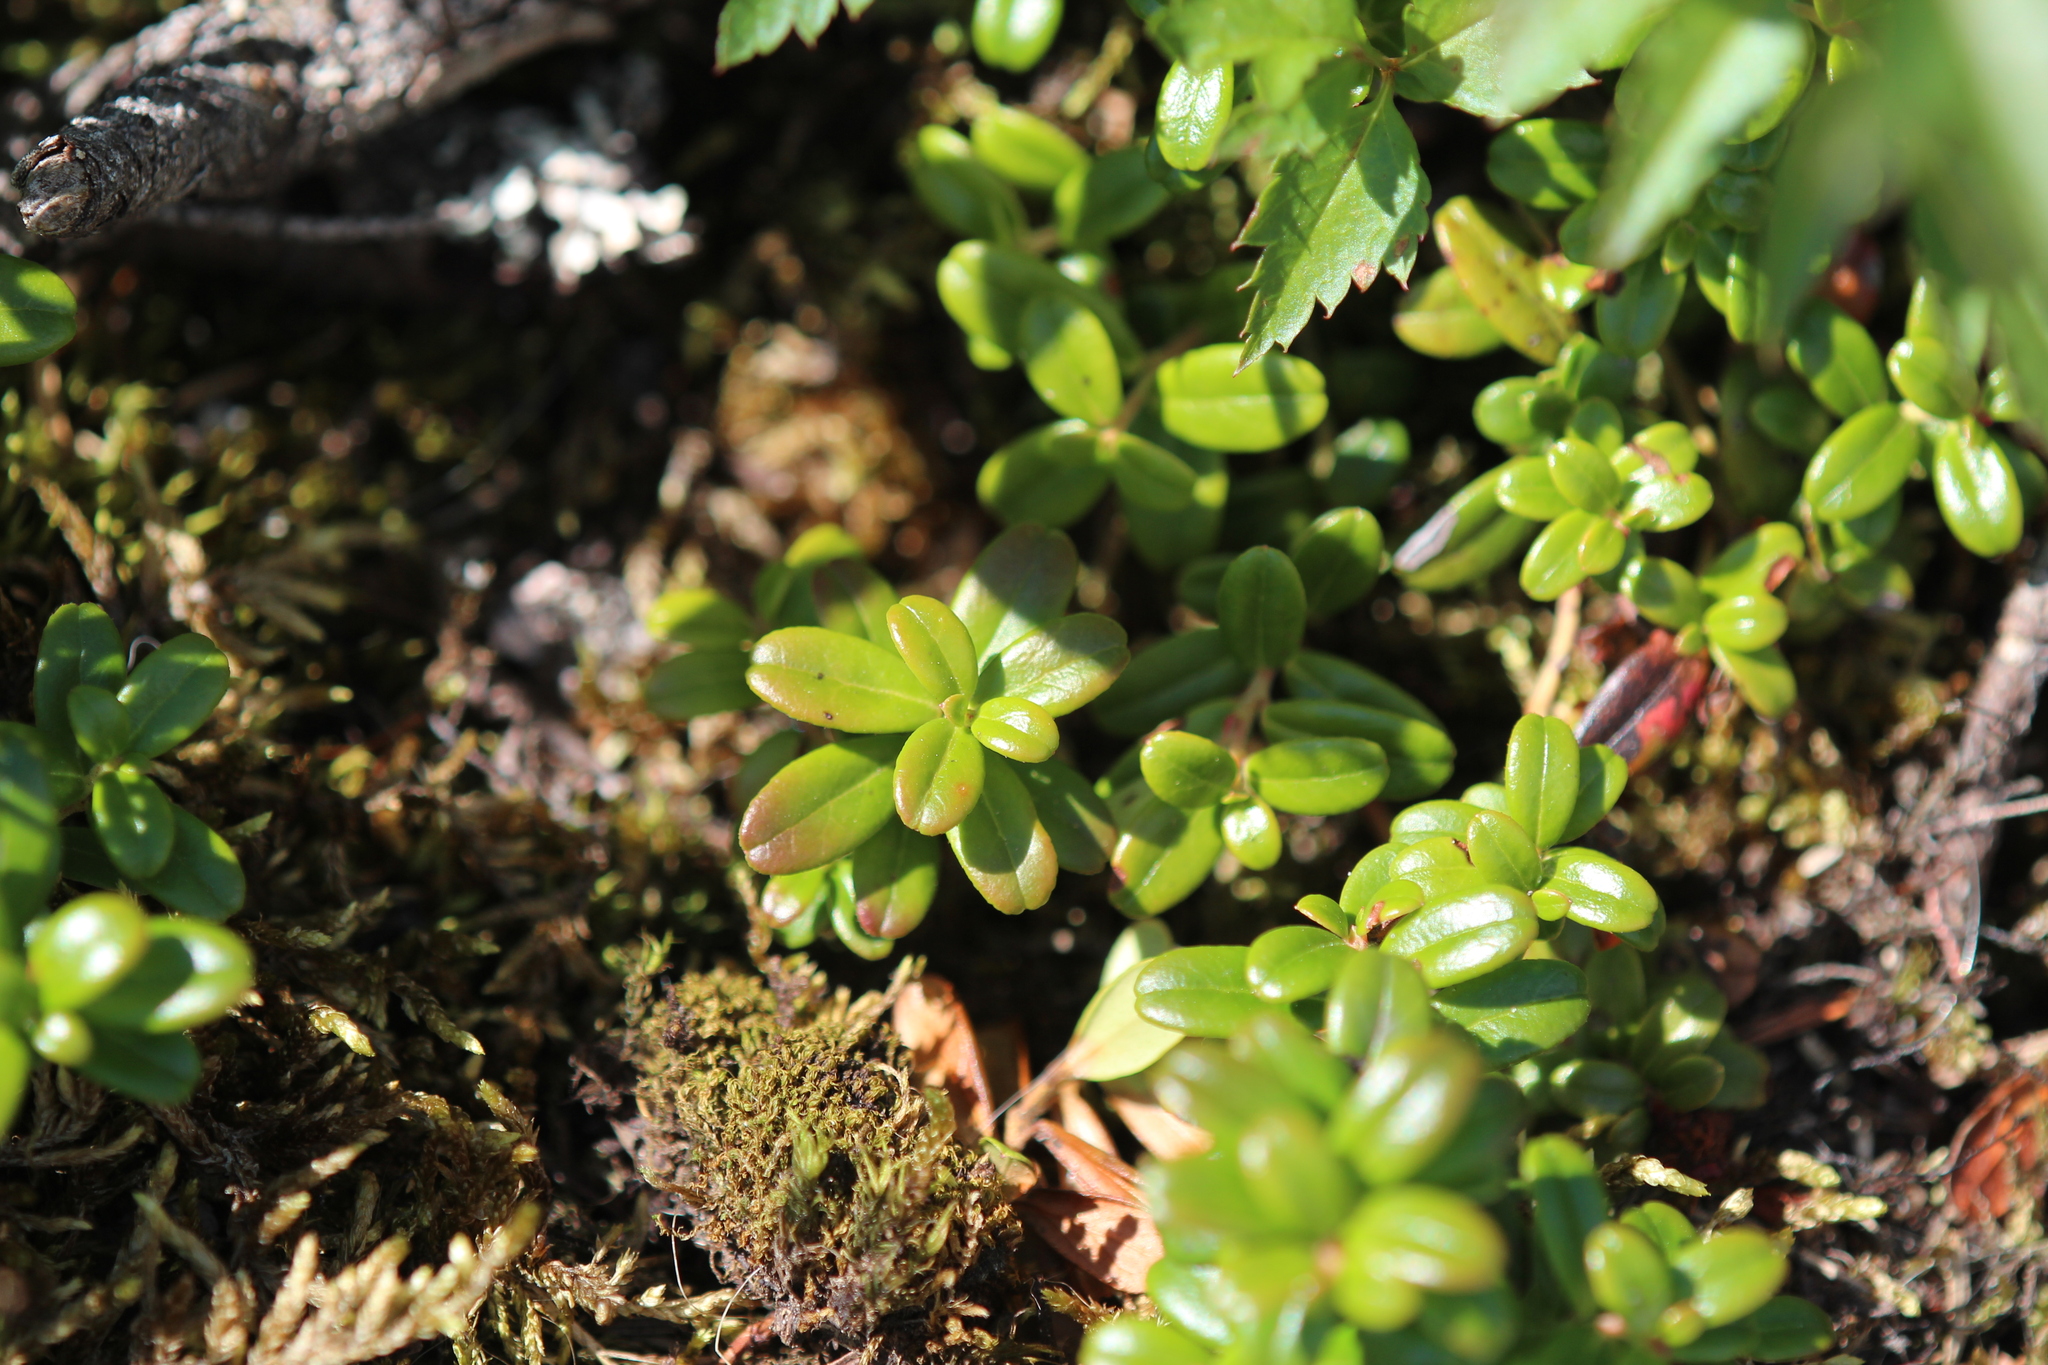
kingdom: Plantae
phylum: Tracheophyta
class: Magnoliopsida
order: Ericales
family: Ericaceae
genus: Vaccinium
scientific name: Vaccinium vitis-idaea
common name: Cowberry
